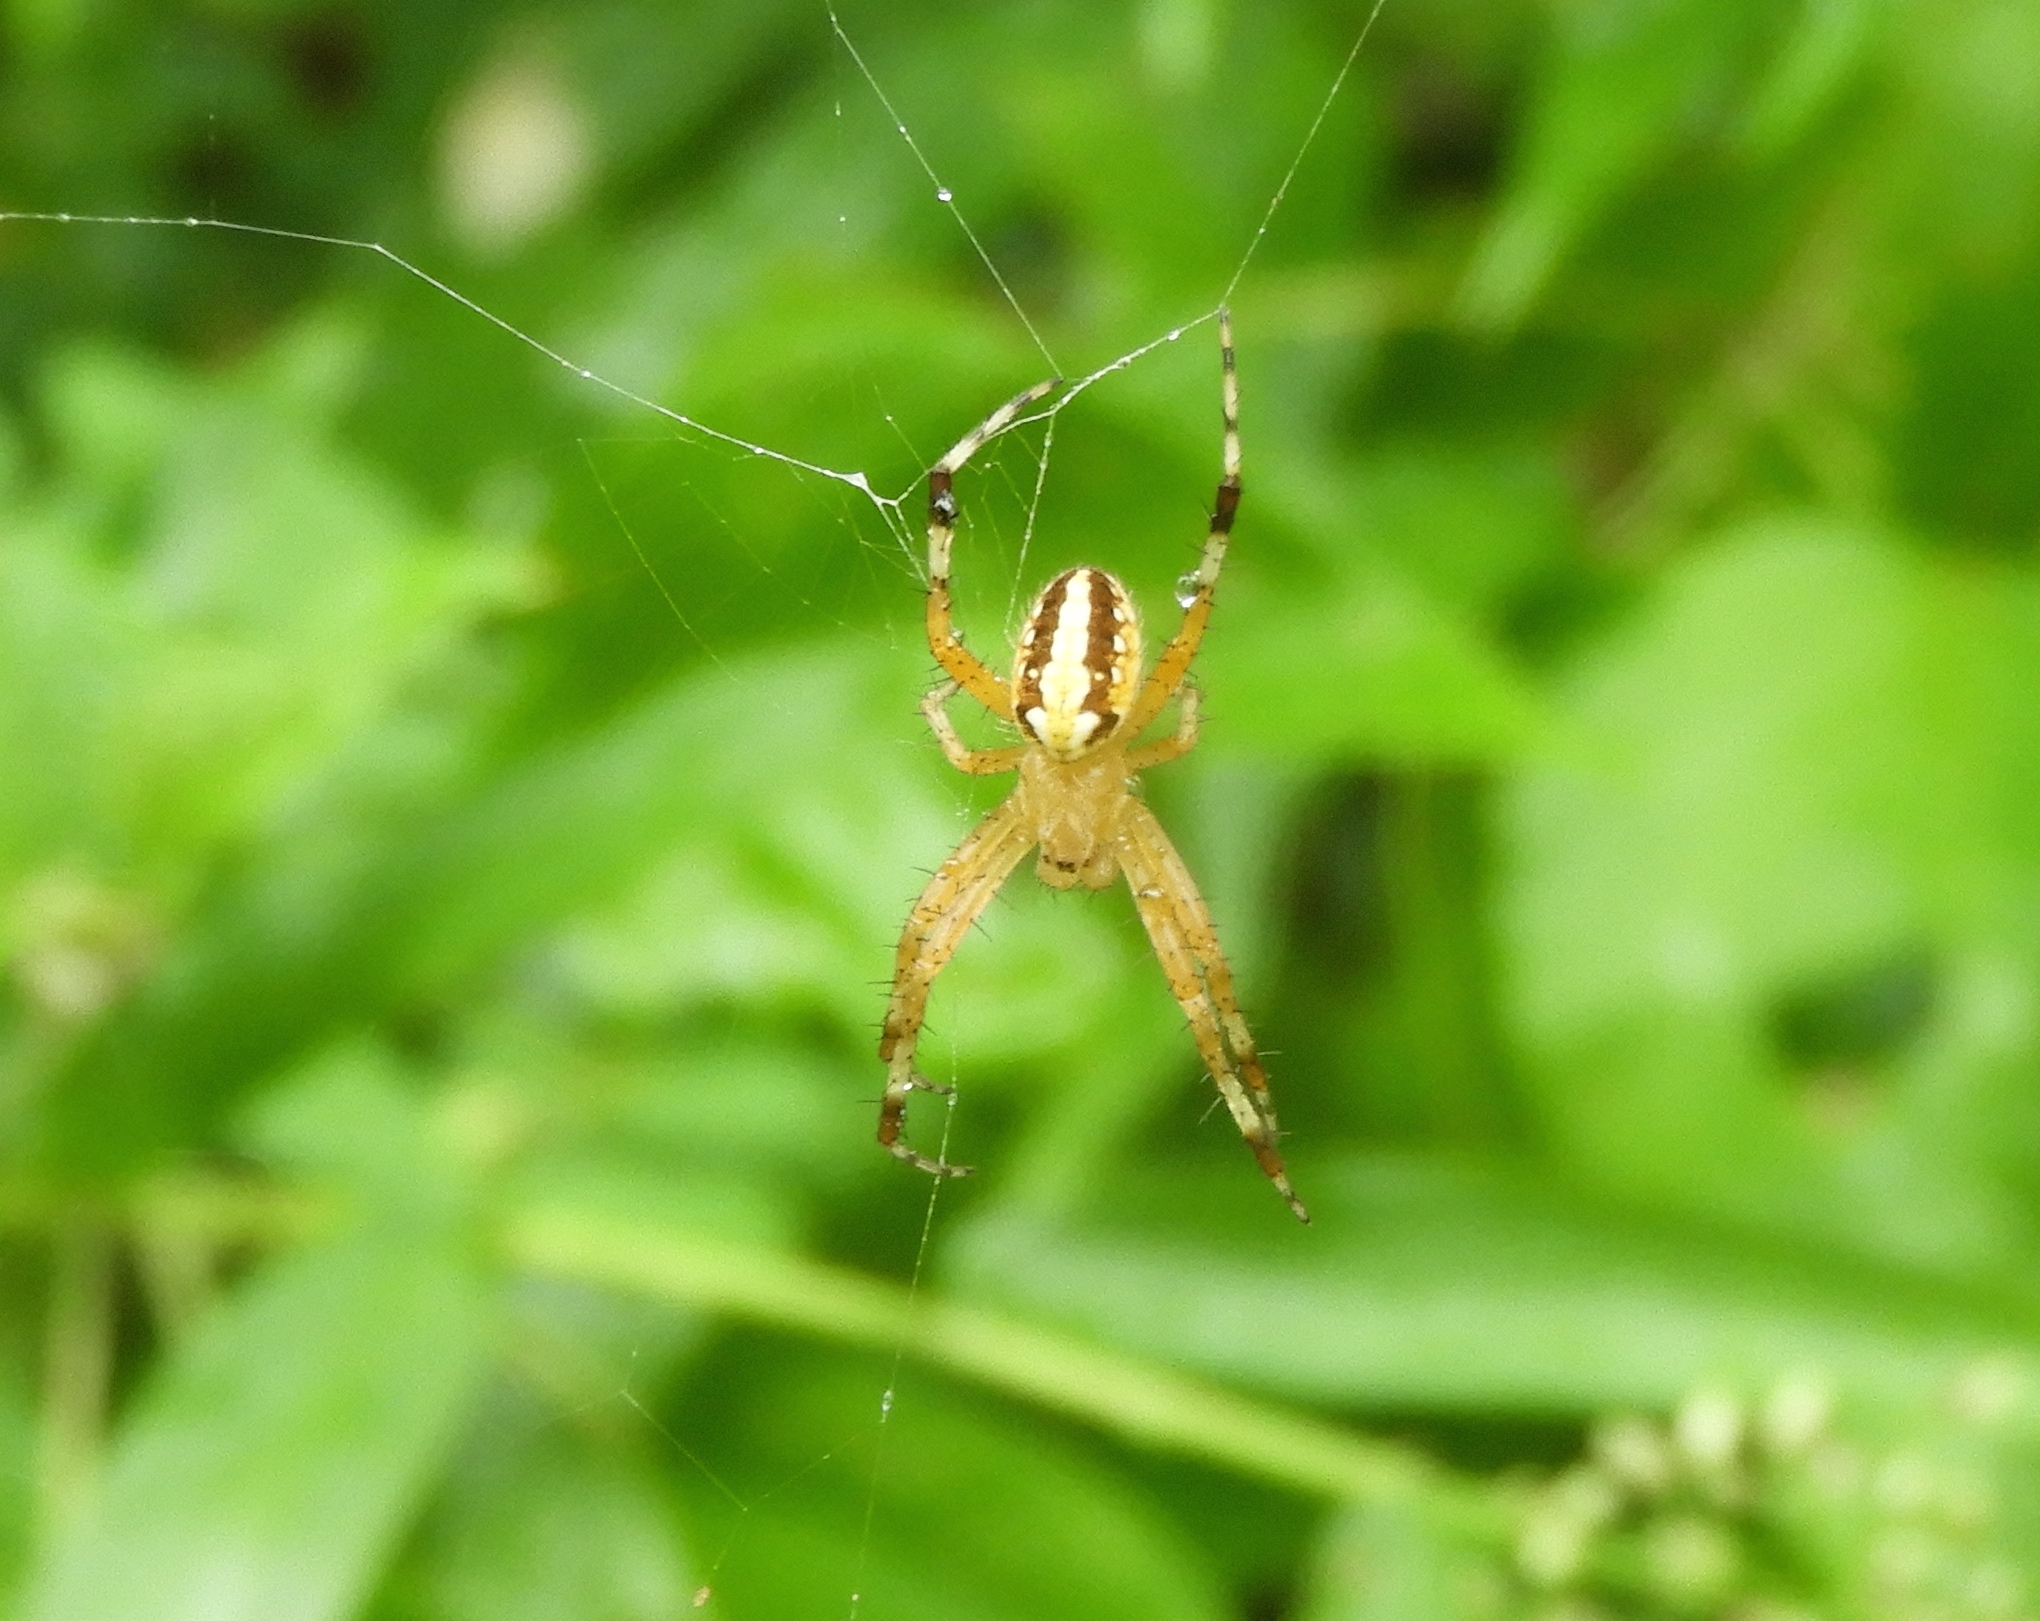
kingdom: Animalia
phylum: Arthropoda
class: Arachnida
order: Araneae
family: Araneidae
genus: Neoscona
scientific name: Neoscona oaxacensis
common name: Orb weavers
